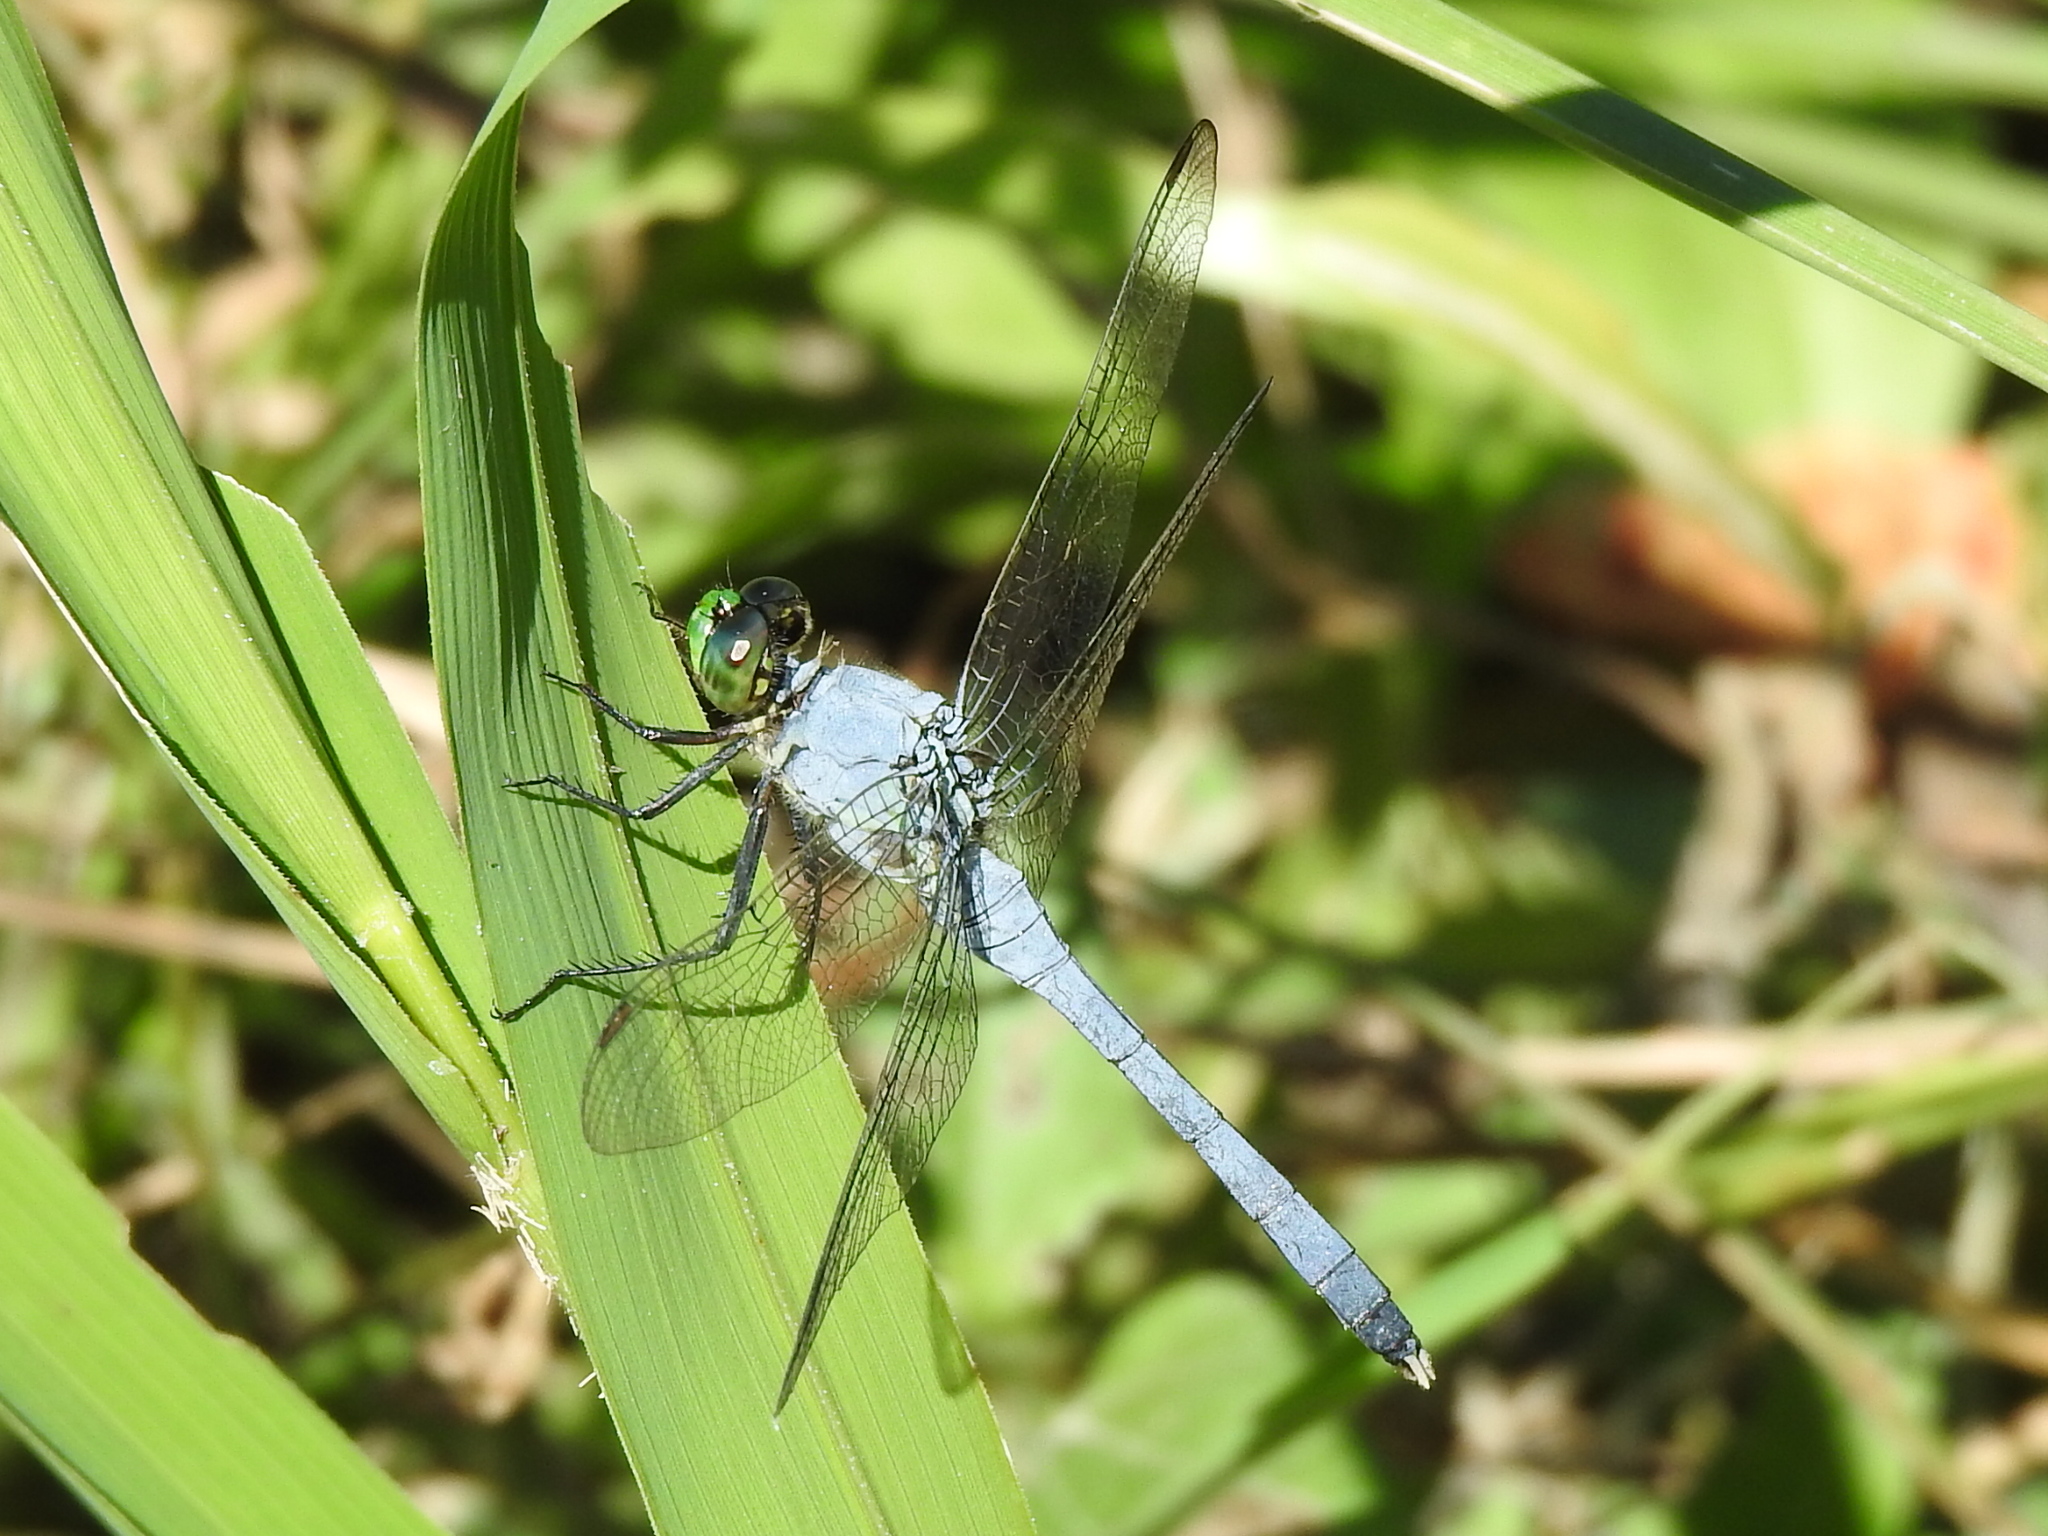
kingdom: Animalia
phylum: Arthropoda
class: Insecta
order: Odonata
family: Libellulidae
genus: Erythemis
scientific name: Erythemis simplicicollis
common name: Eastern pondhawk
